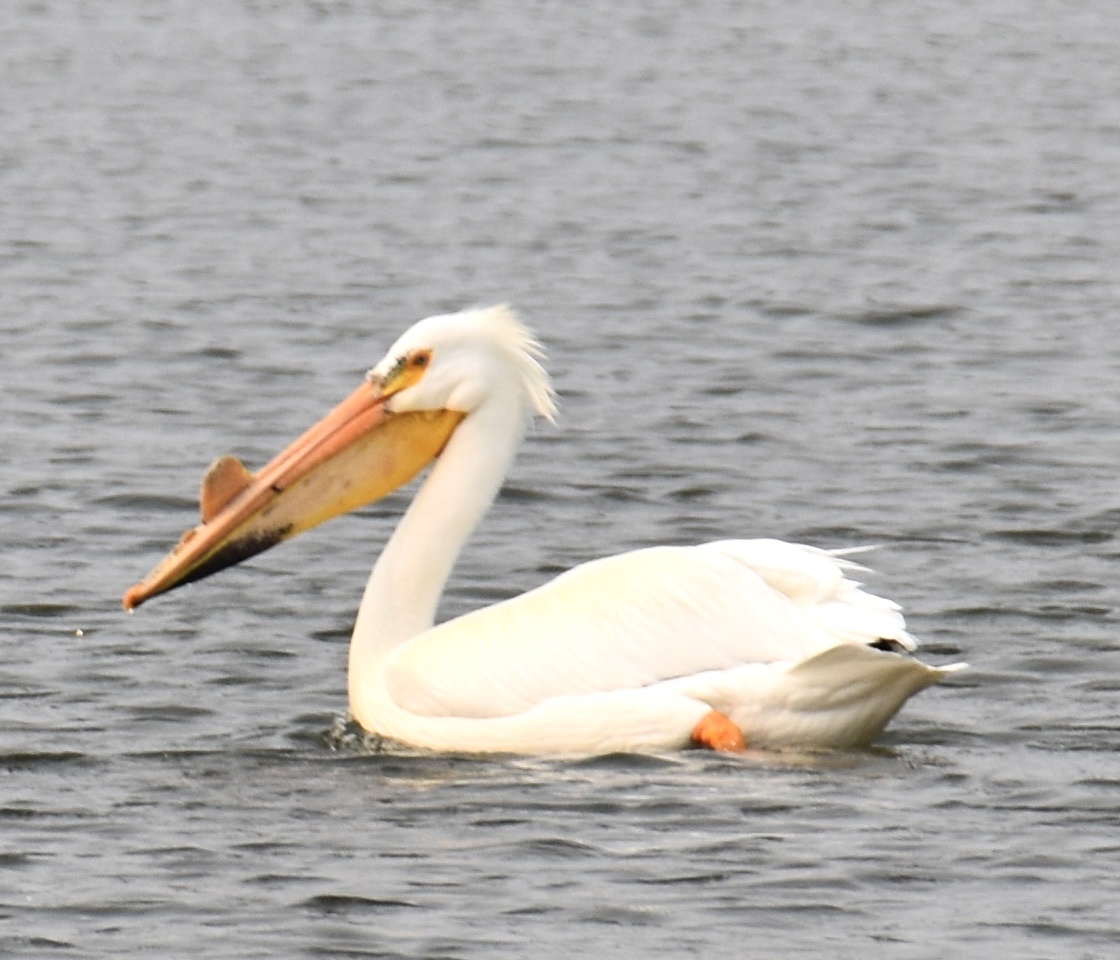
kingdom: Animalia
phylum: Chordata
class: Aves
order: Pelecaniformes
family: Pelecanidae
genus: Pelecanus
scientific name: Pelecanus erythrorhynchos
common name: American white pelican
